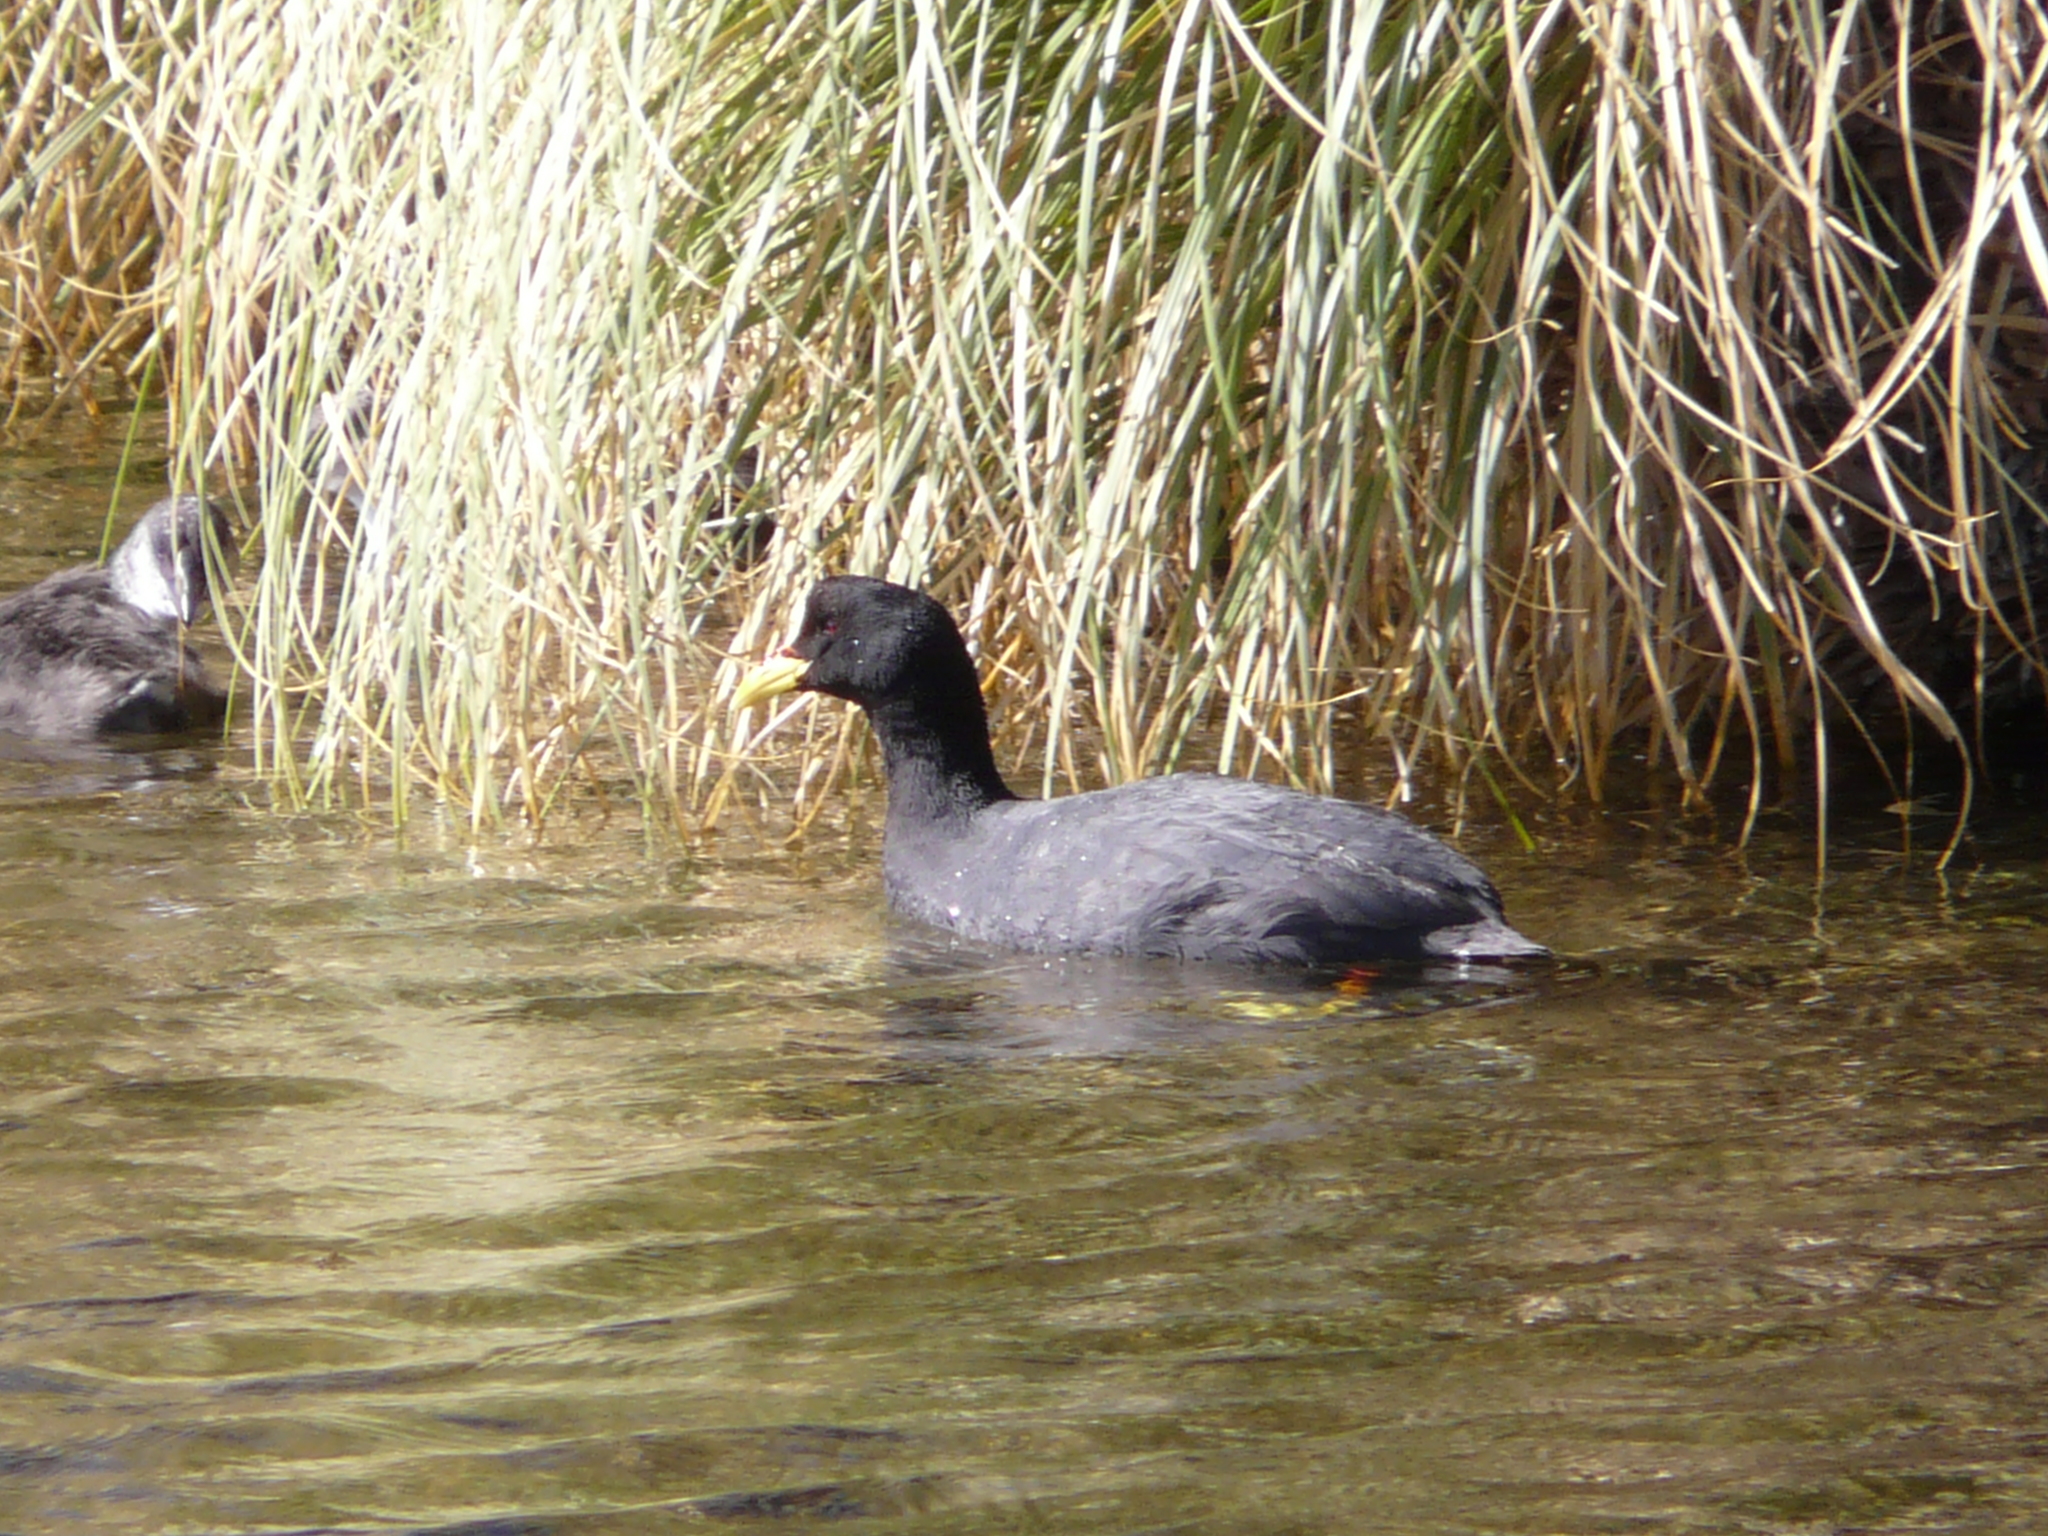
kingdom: Animalia
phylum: Chordata
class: Aves
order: Gruiformes
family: Rallidae
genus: Fulica
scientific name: Fulica armillata
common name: Red-gartered coot
